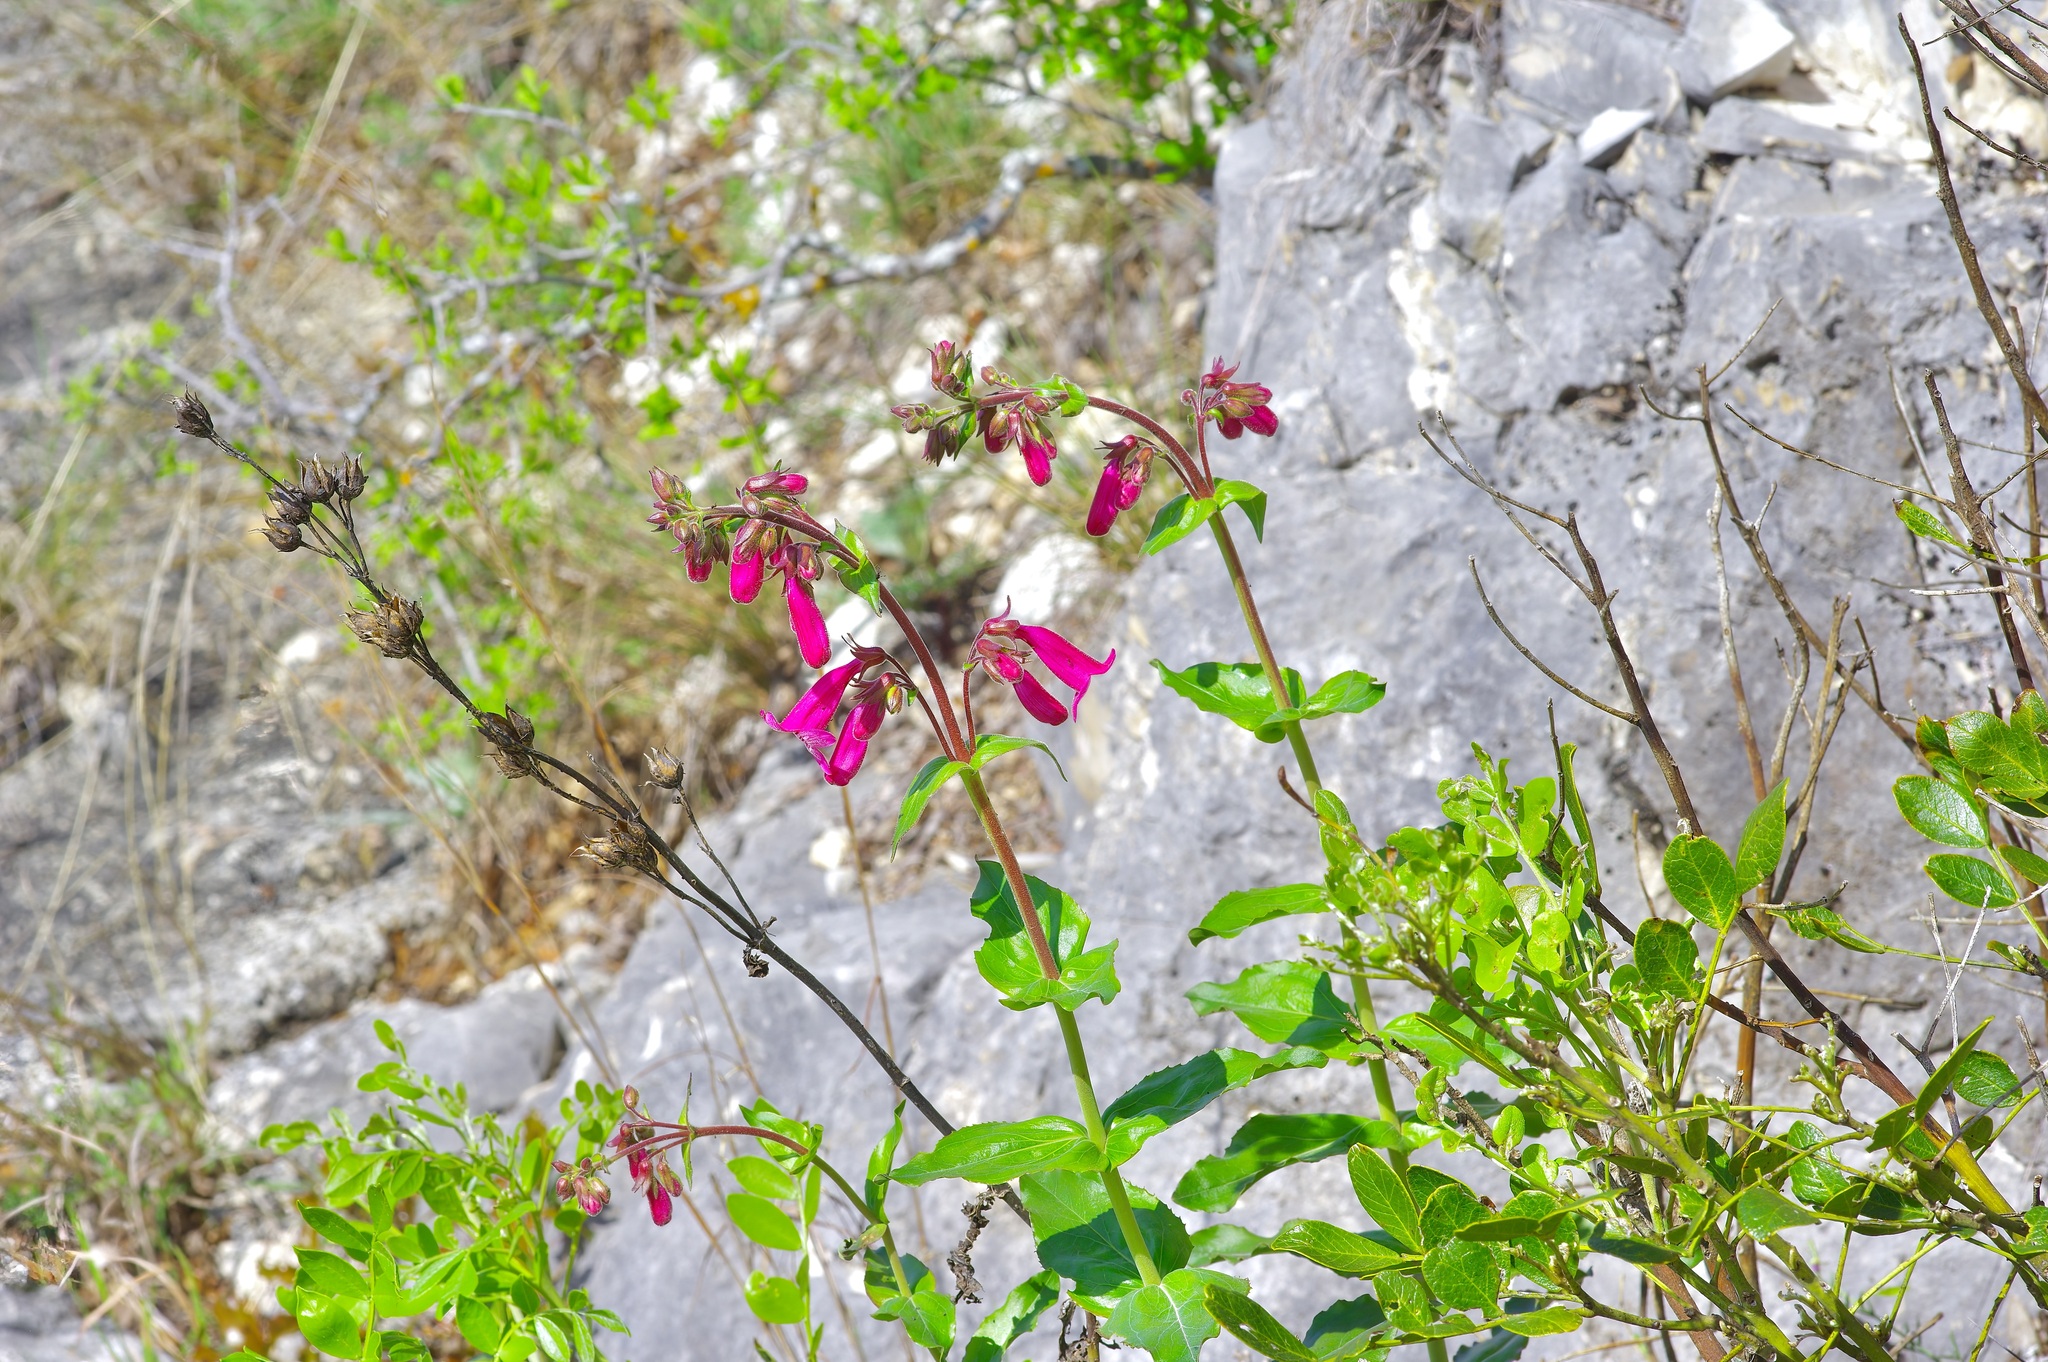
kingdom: Plantae
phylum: Tracheophyta
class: Magnoliopsida
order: Lamiales
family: Plantaginaceae
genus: Penstemon
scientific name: Penstemon triflorus
